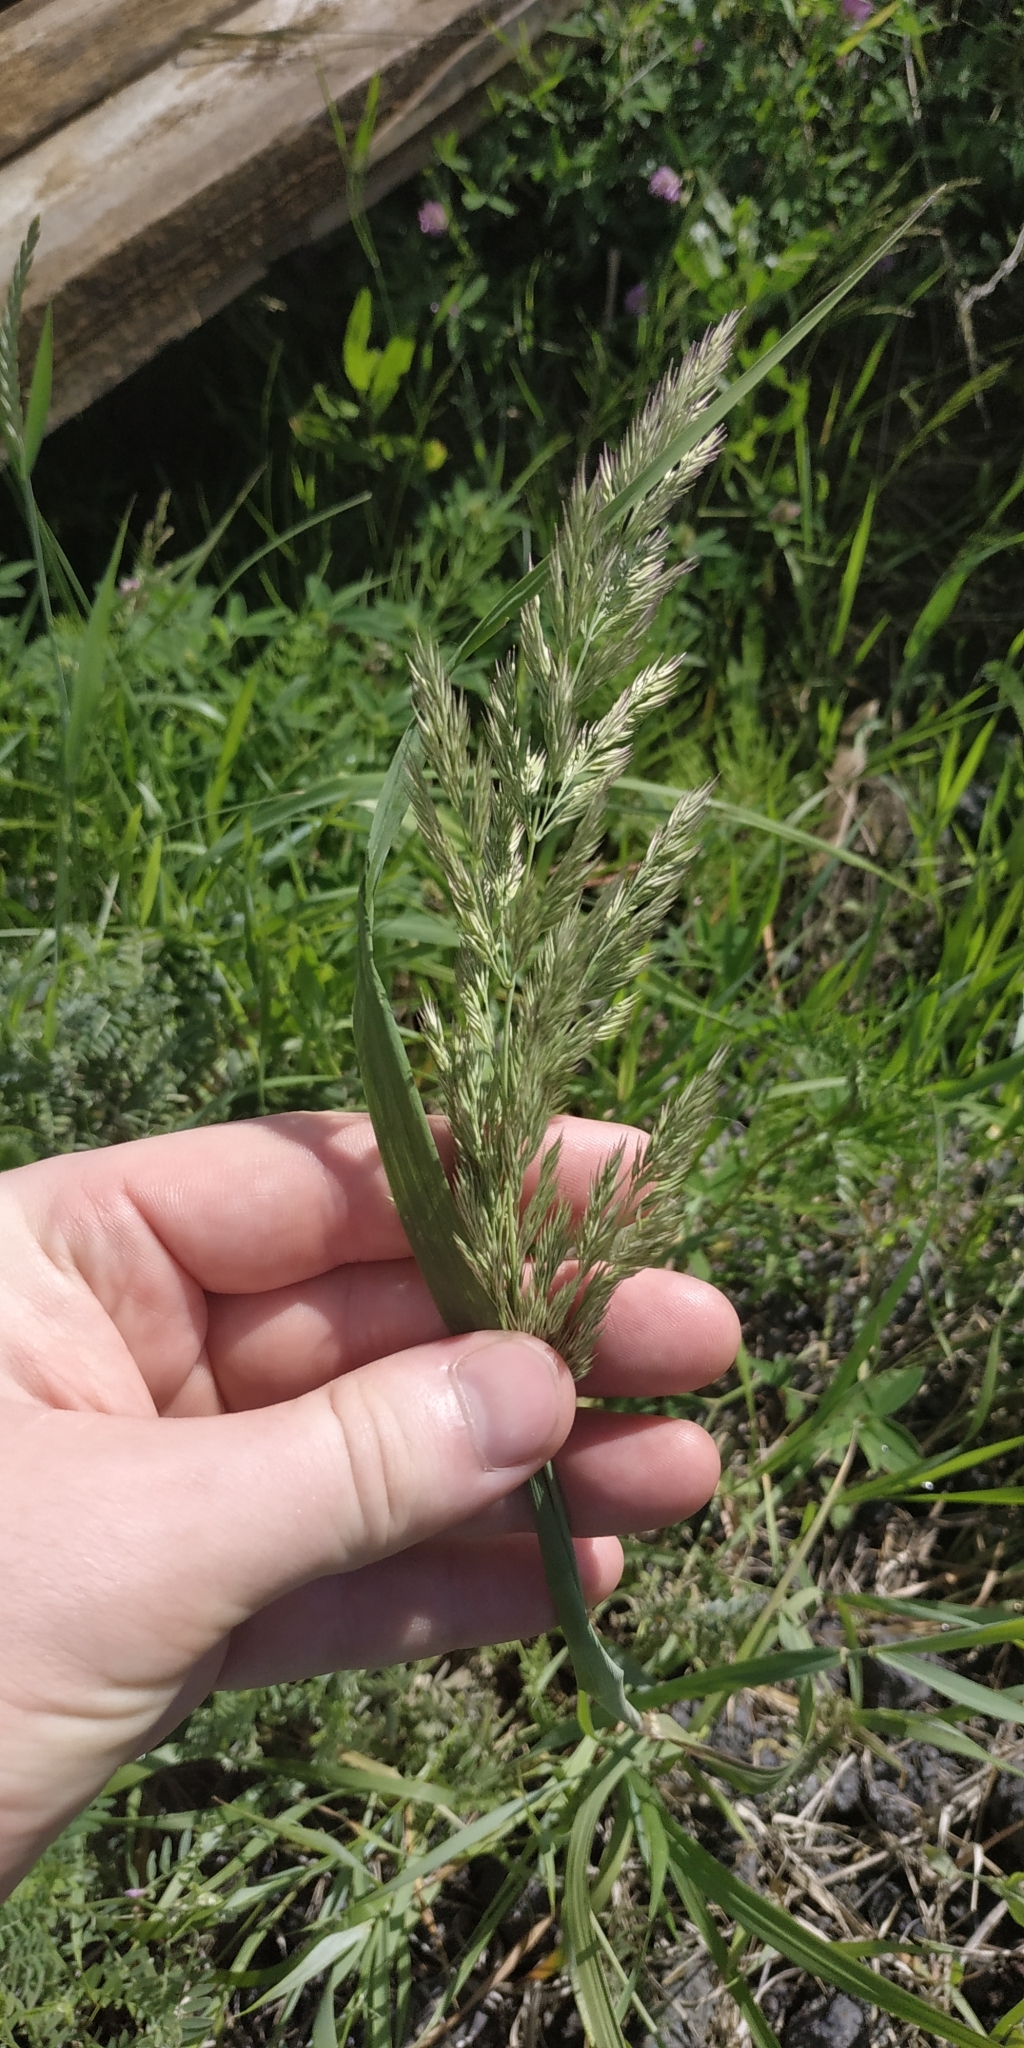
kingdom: Plantae
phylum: Tracheophyta
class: Liliopsida
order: Poales
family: Poaceae
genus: Calamagrostis
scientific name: Calamagrostis epigejos
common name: Wood small-reed
